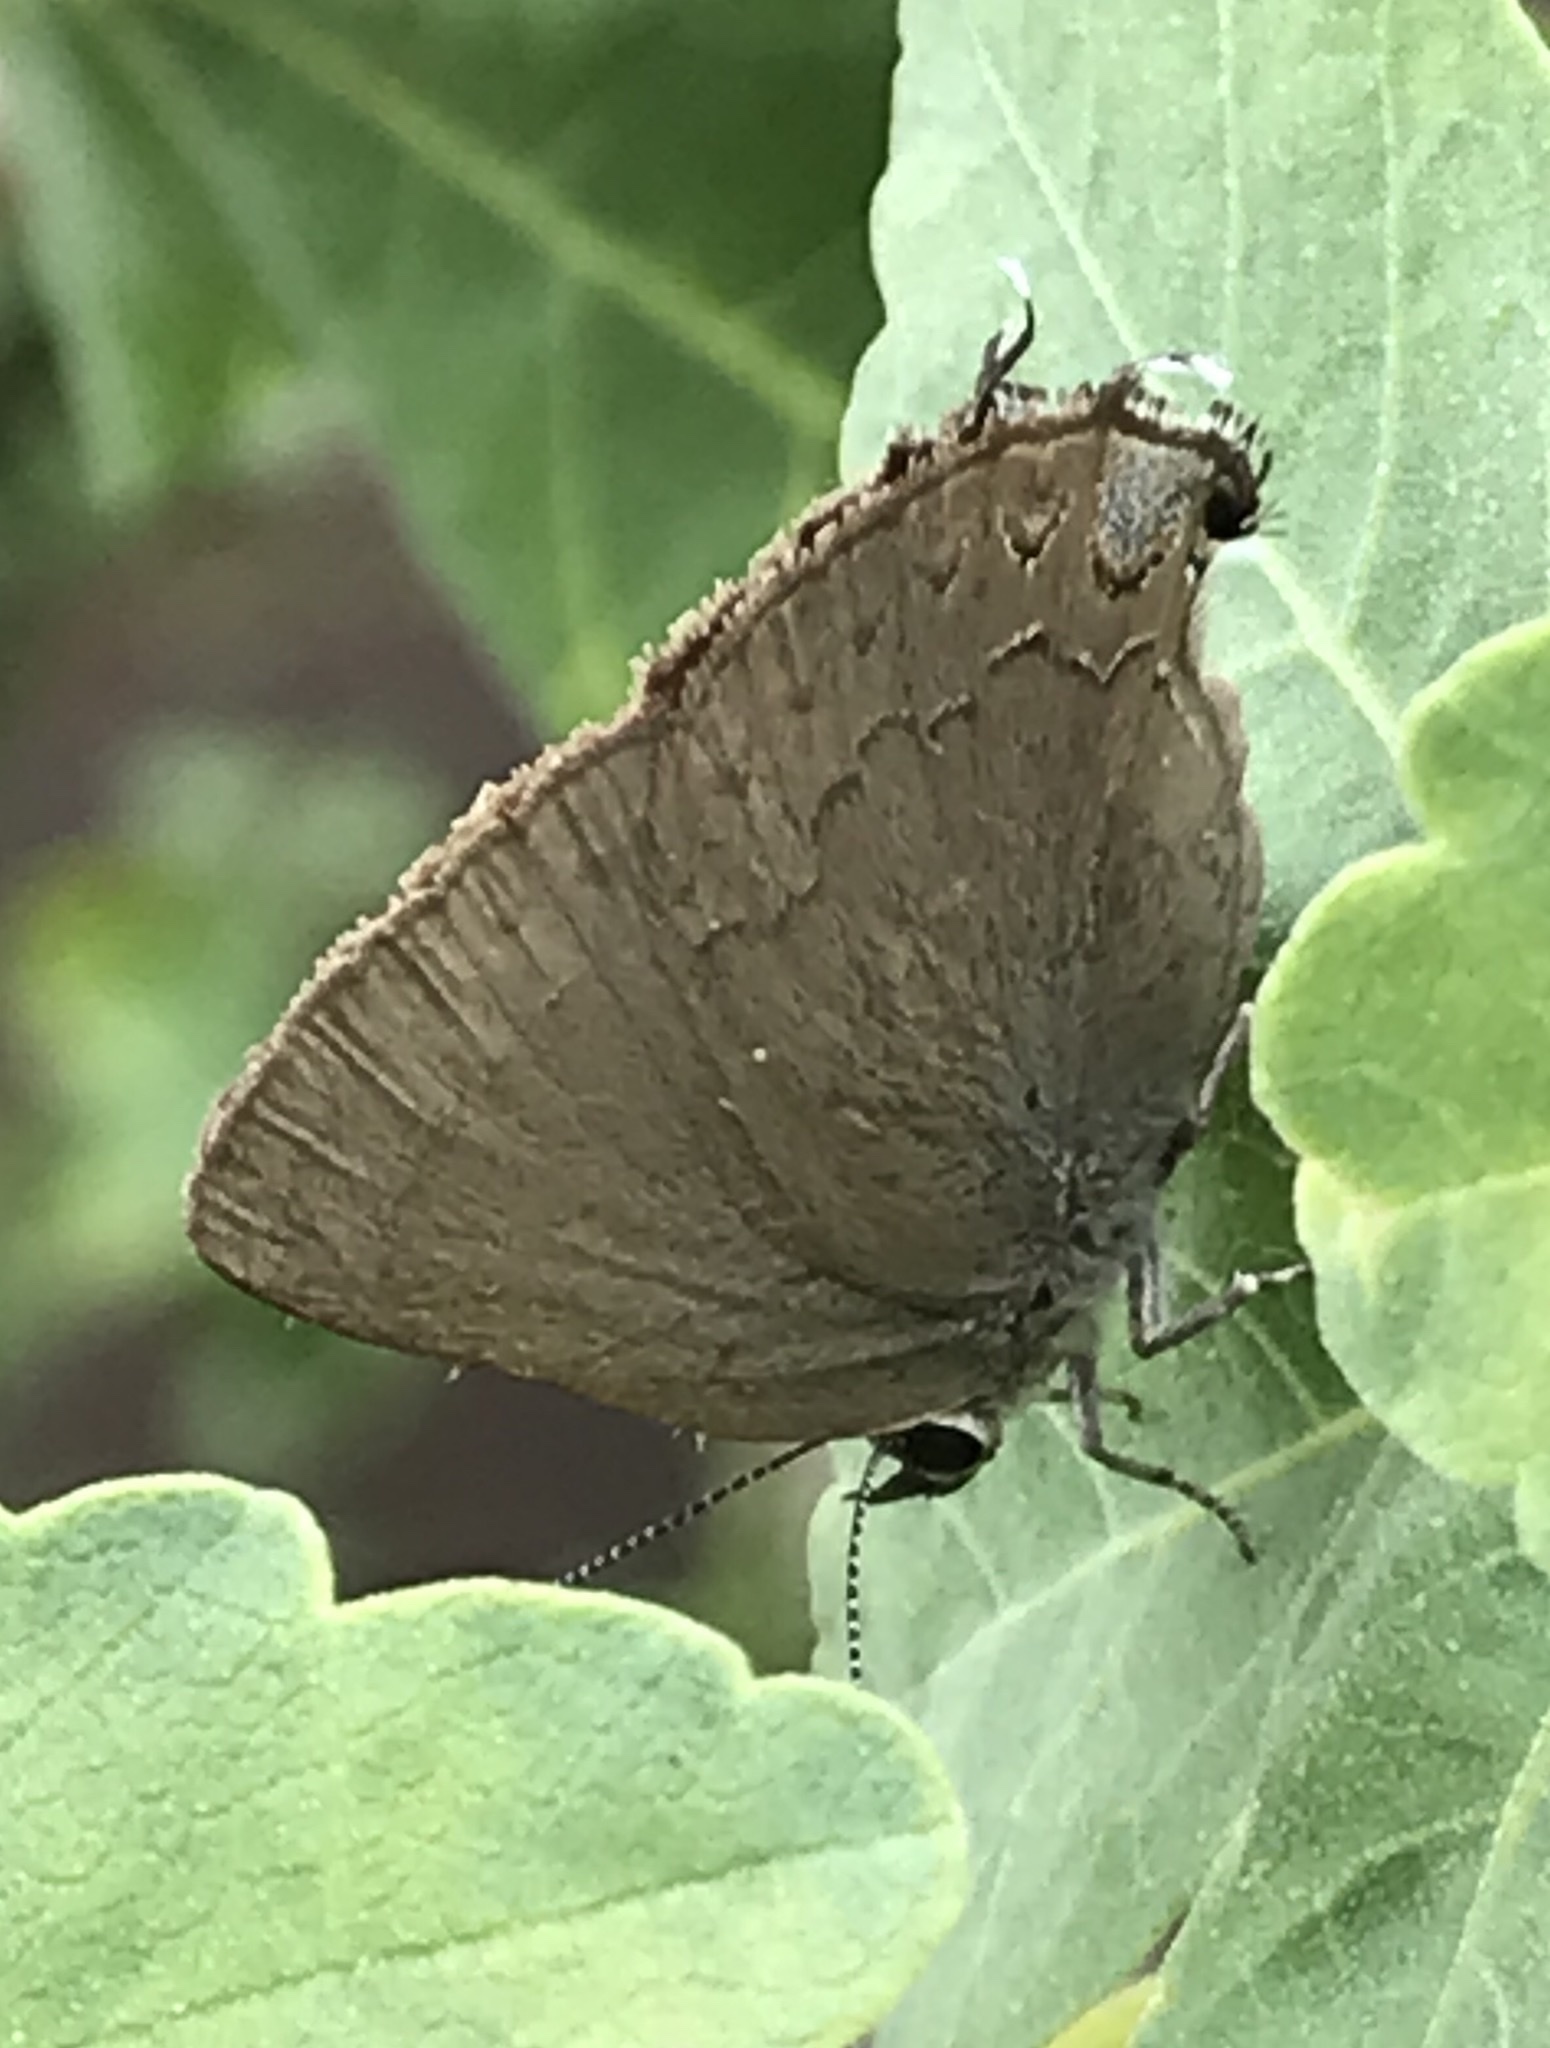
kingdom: Animalia
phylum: Arthropoda
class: Insecta
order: Lepidoptera
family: Lycaenidae
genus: Strymon
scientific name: Strymon saepium
